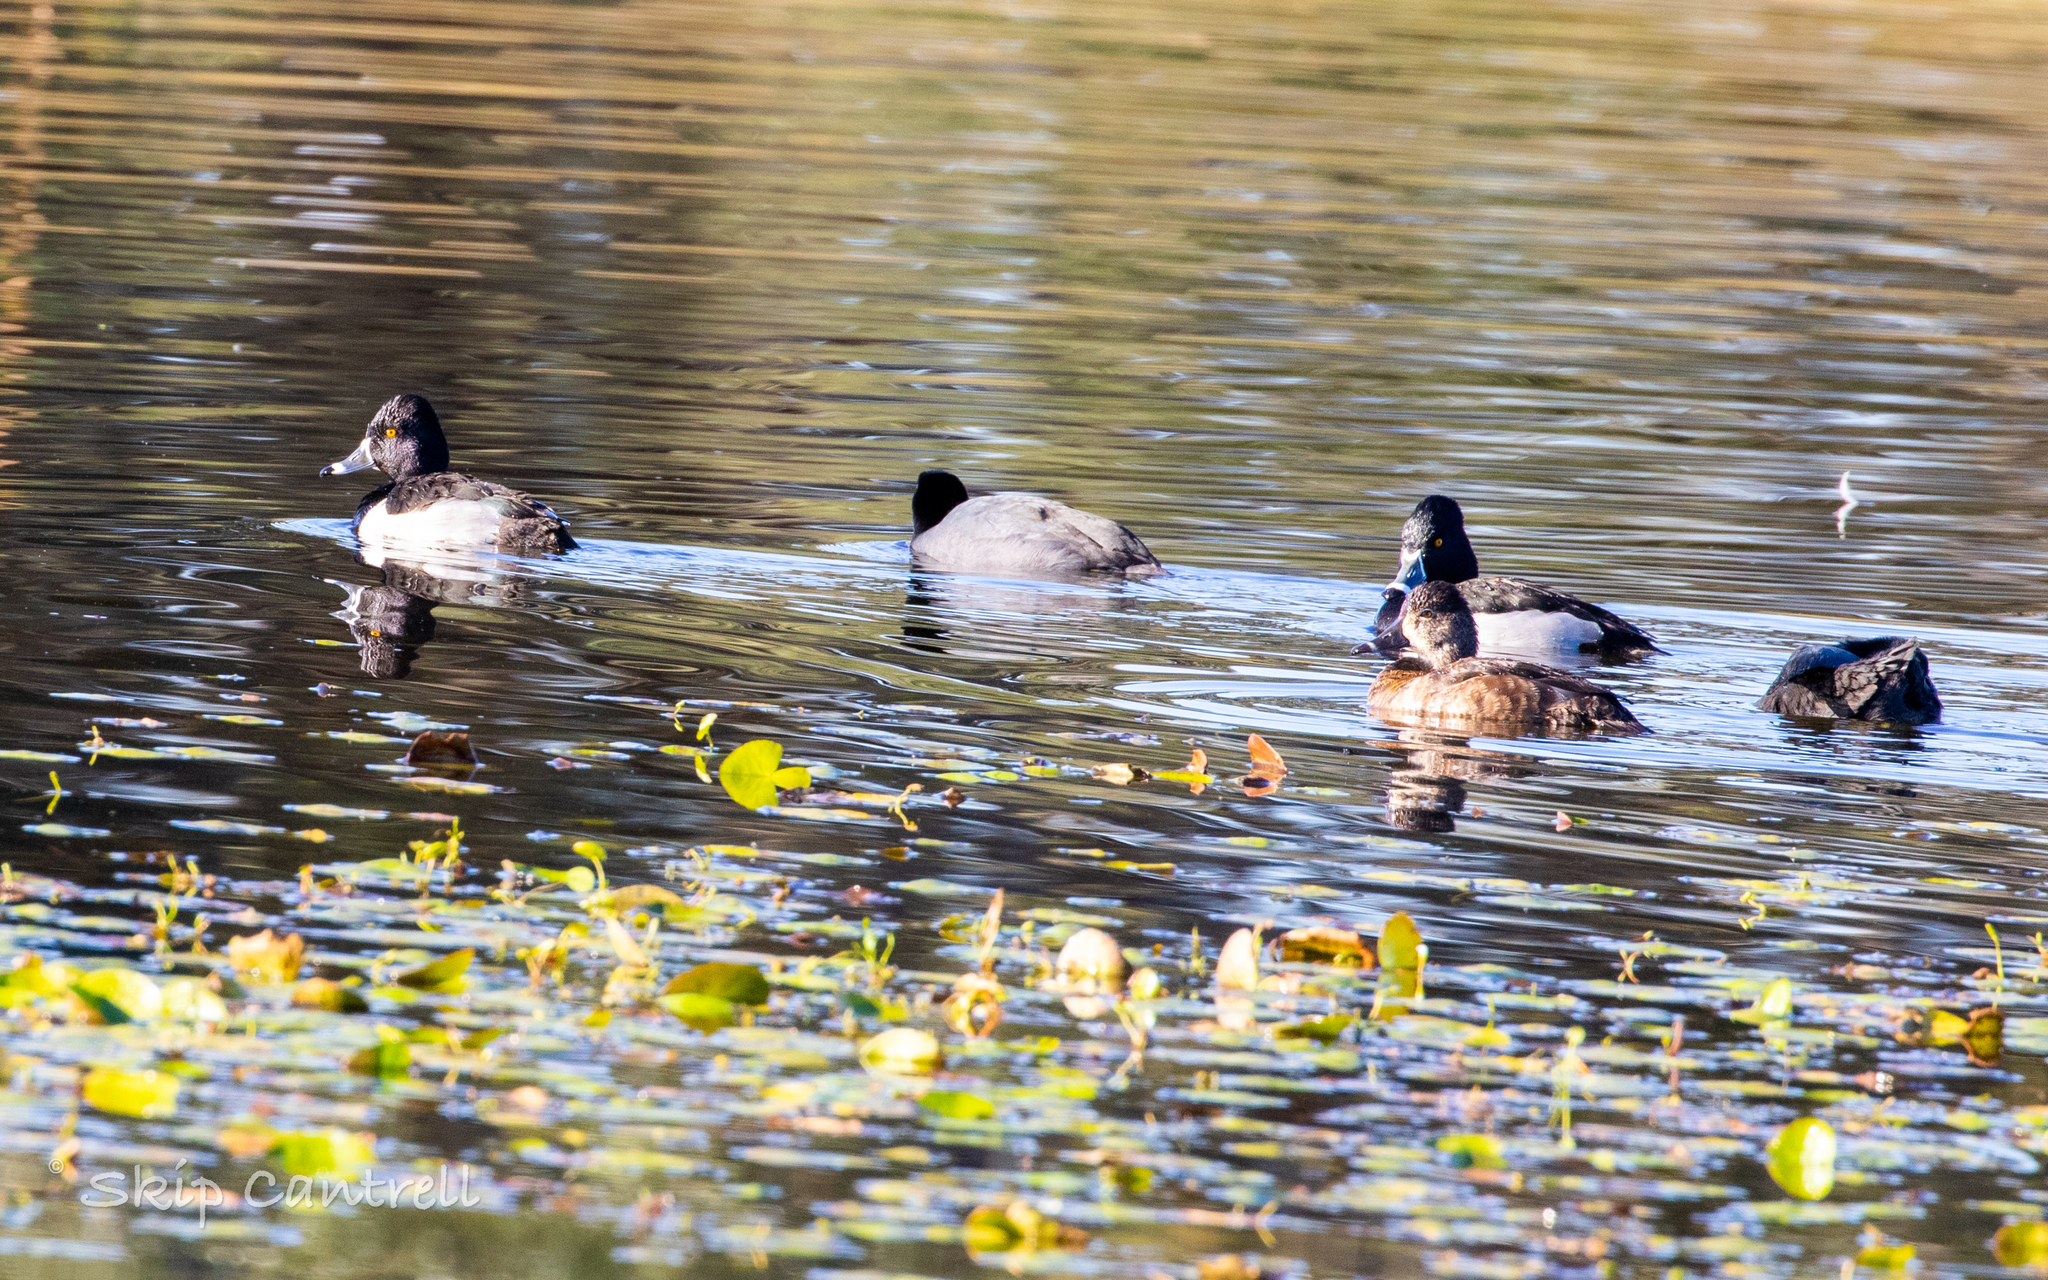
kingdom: Animalia
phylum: Chordata
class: Aves
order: Anseriformes
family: Anatidae
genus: Aythya
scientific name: Aythya collaris
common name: Ring-necked duck
